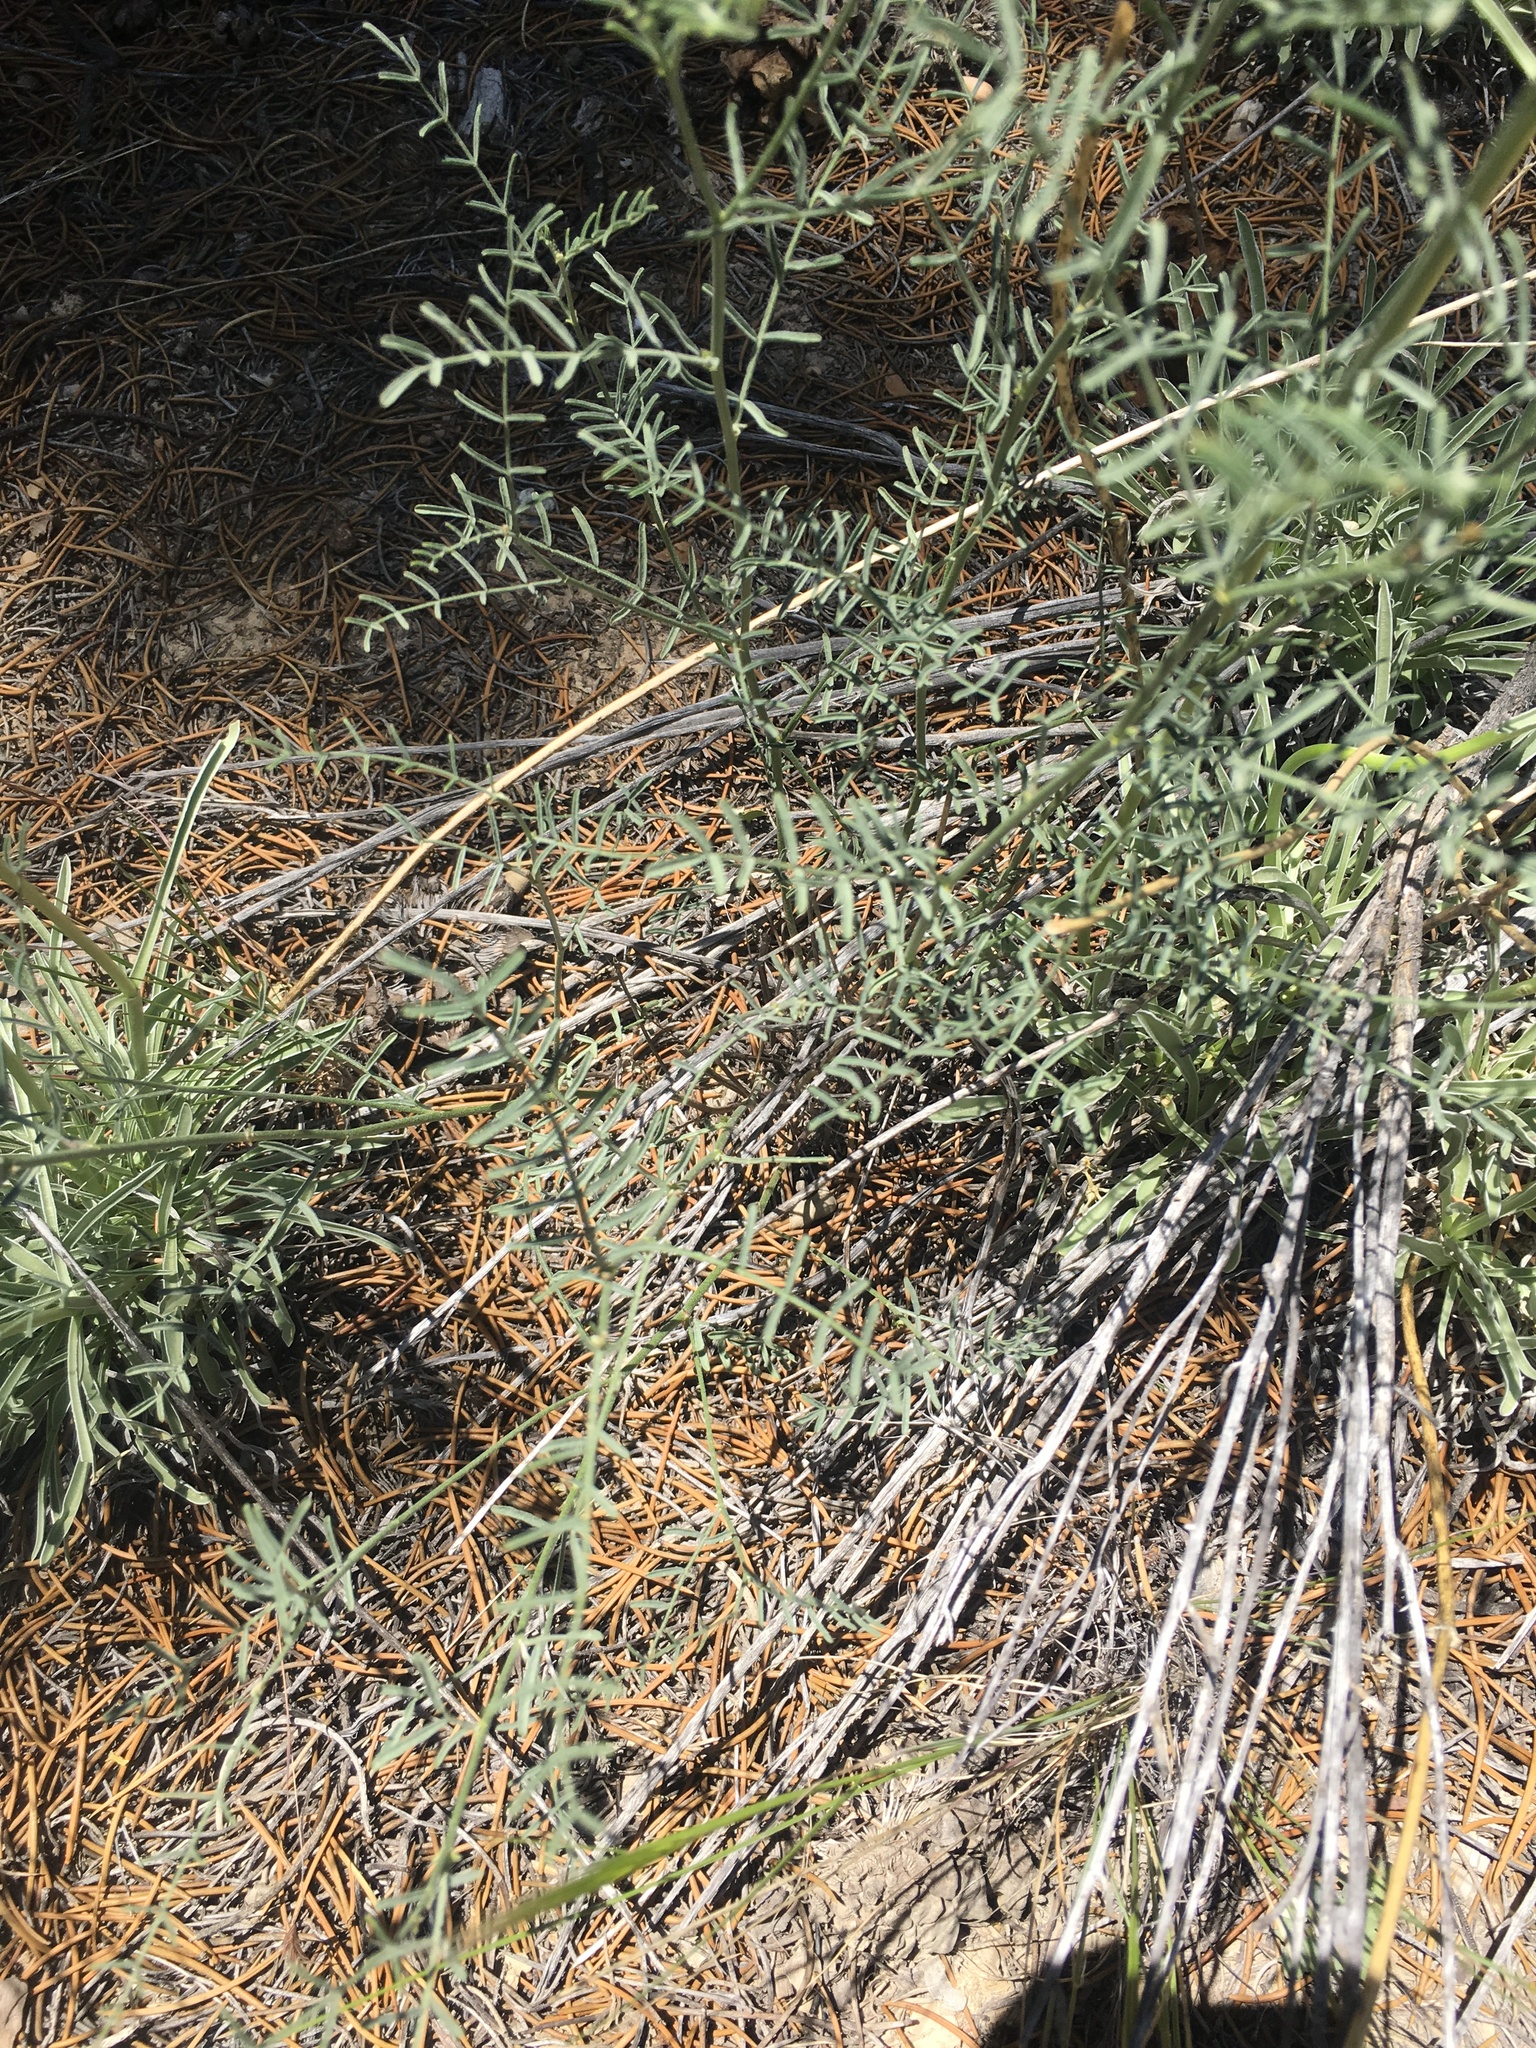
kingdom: Plantae
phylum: Tracheophyta
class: Magnoliopsida
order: Fabales
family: Fabaceae
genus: Astragalus
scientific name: Astragalus filipes
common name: Basalt milk-vetch
